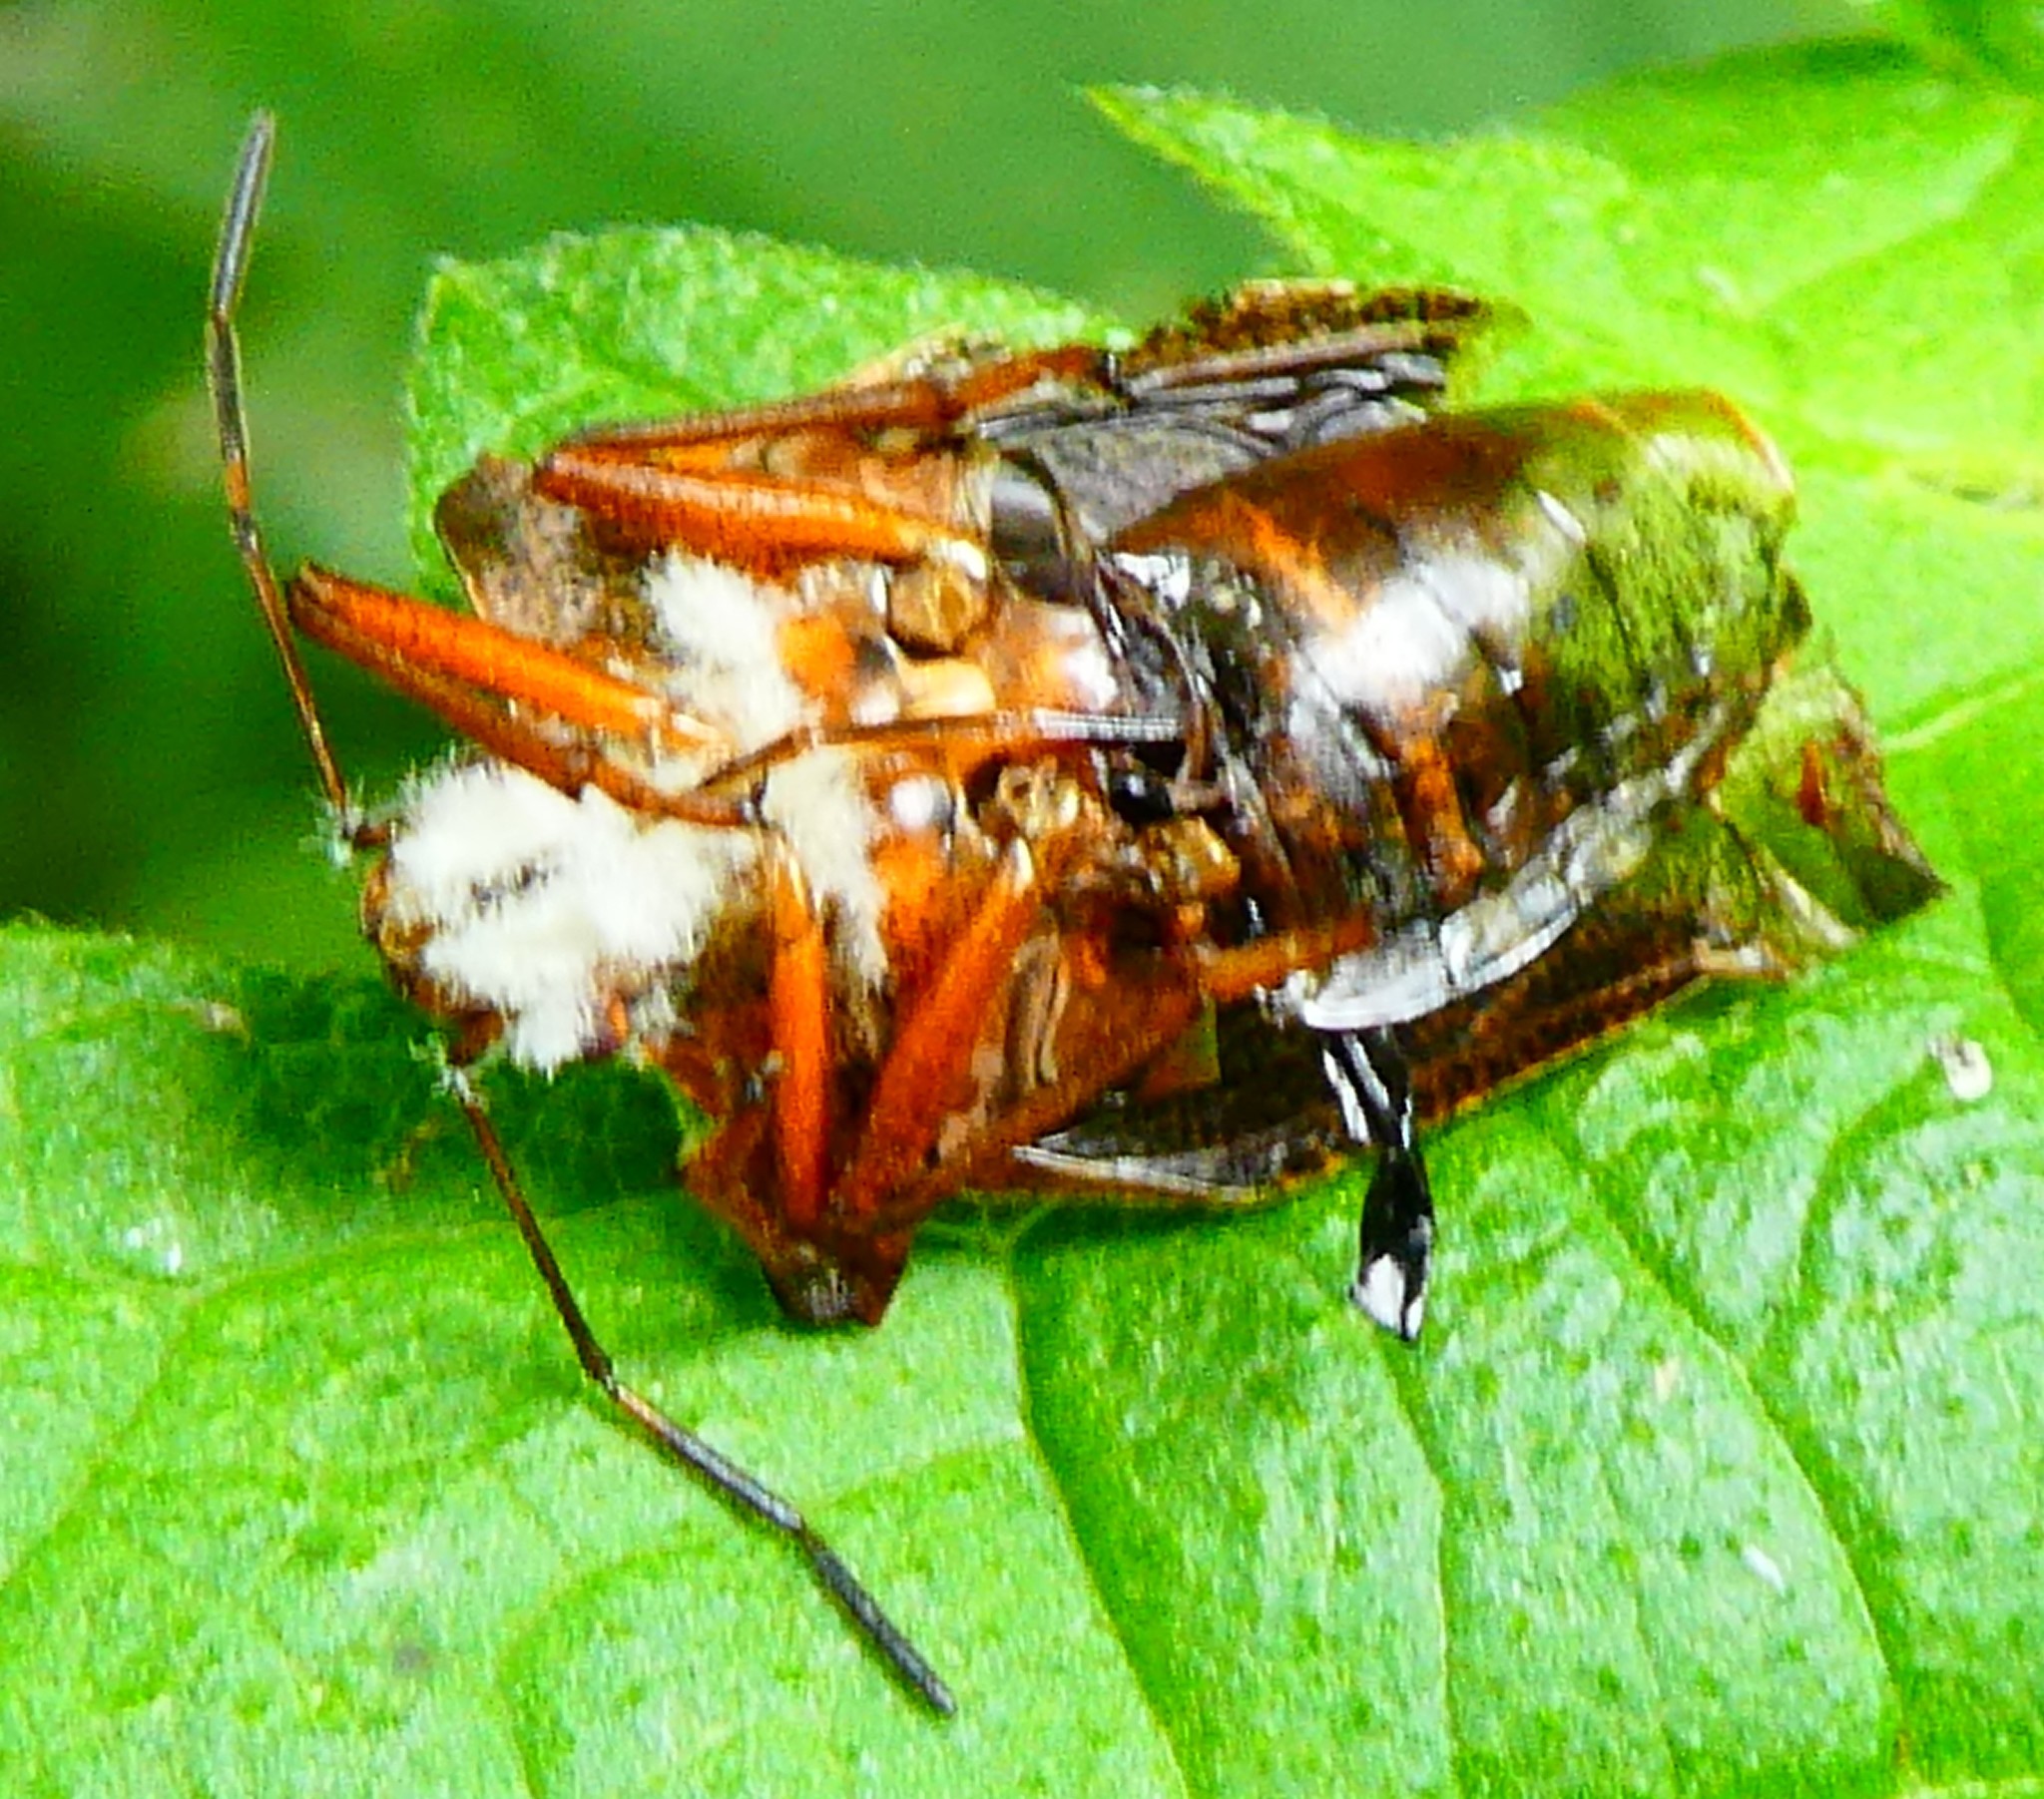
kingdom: Animalia
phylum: Arthropoda
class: Insecta
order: Hemiptera
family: Pentatomidae
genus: Pentatoma
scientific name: Pentatoma rufipes
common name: Forest bug
